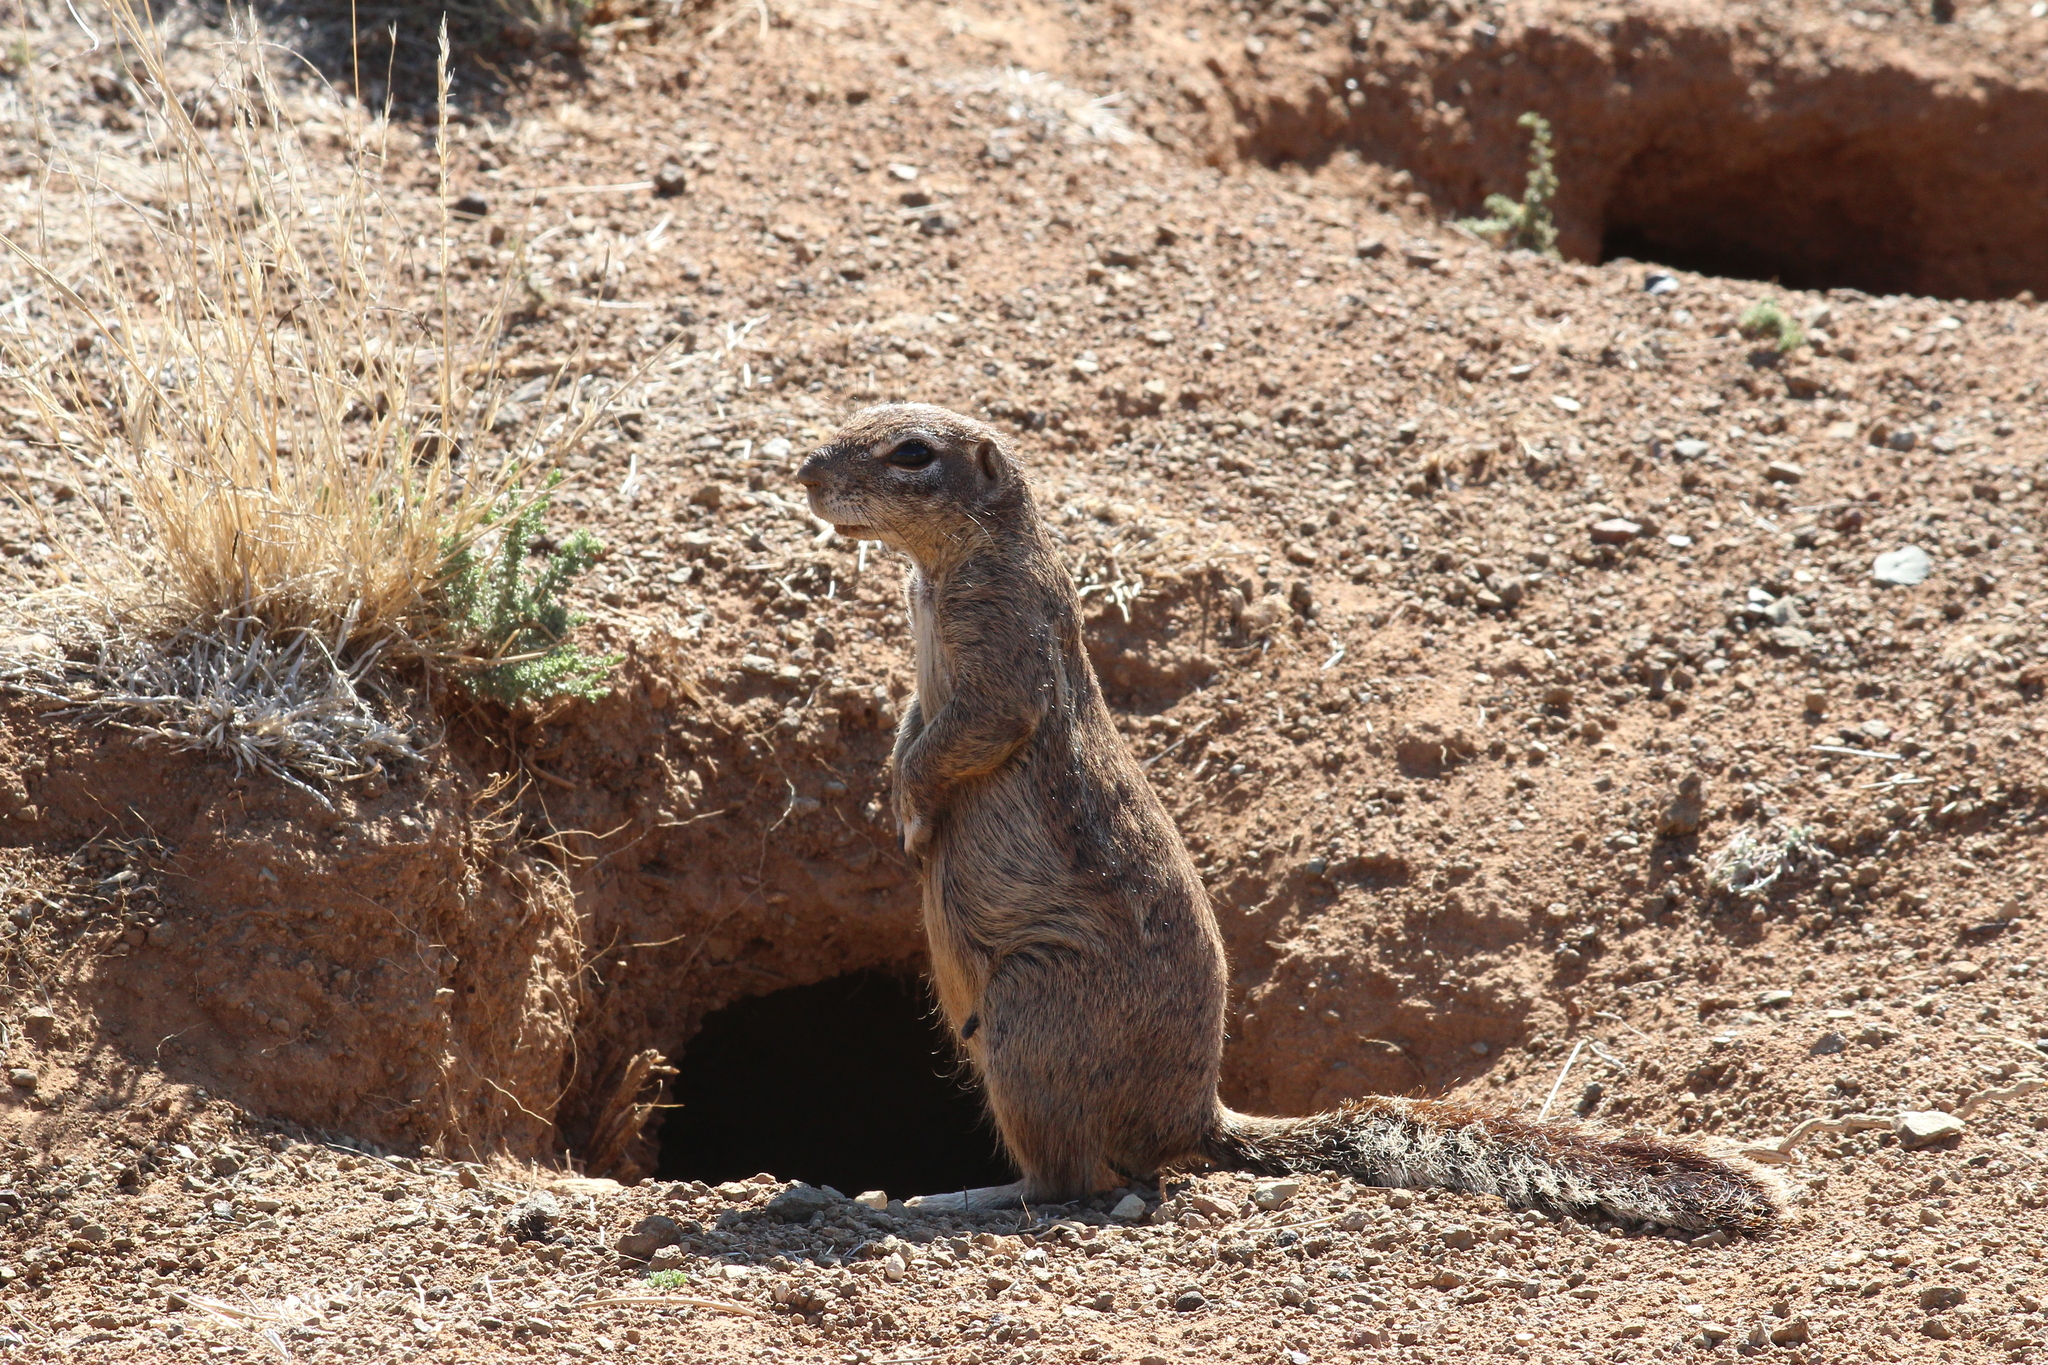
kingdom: Animalia
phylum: Chordata
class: Mammalia
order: Rodentia
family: Sciuridae
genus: Xerus
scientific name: Xerus inauris
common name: South african ground squirrel
